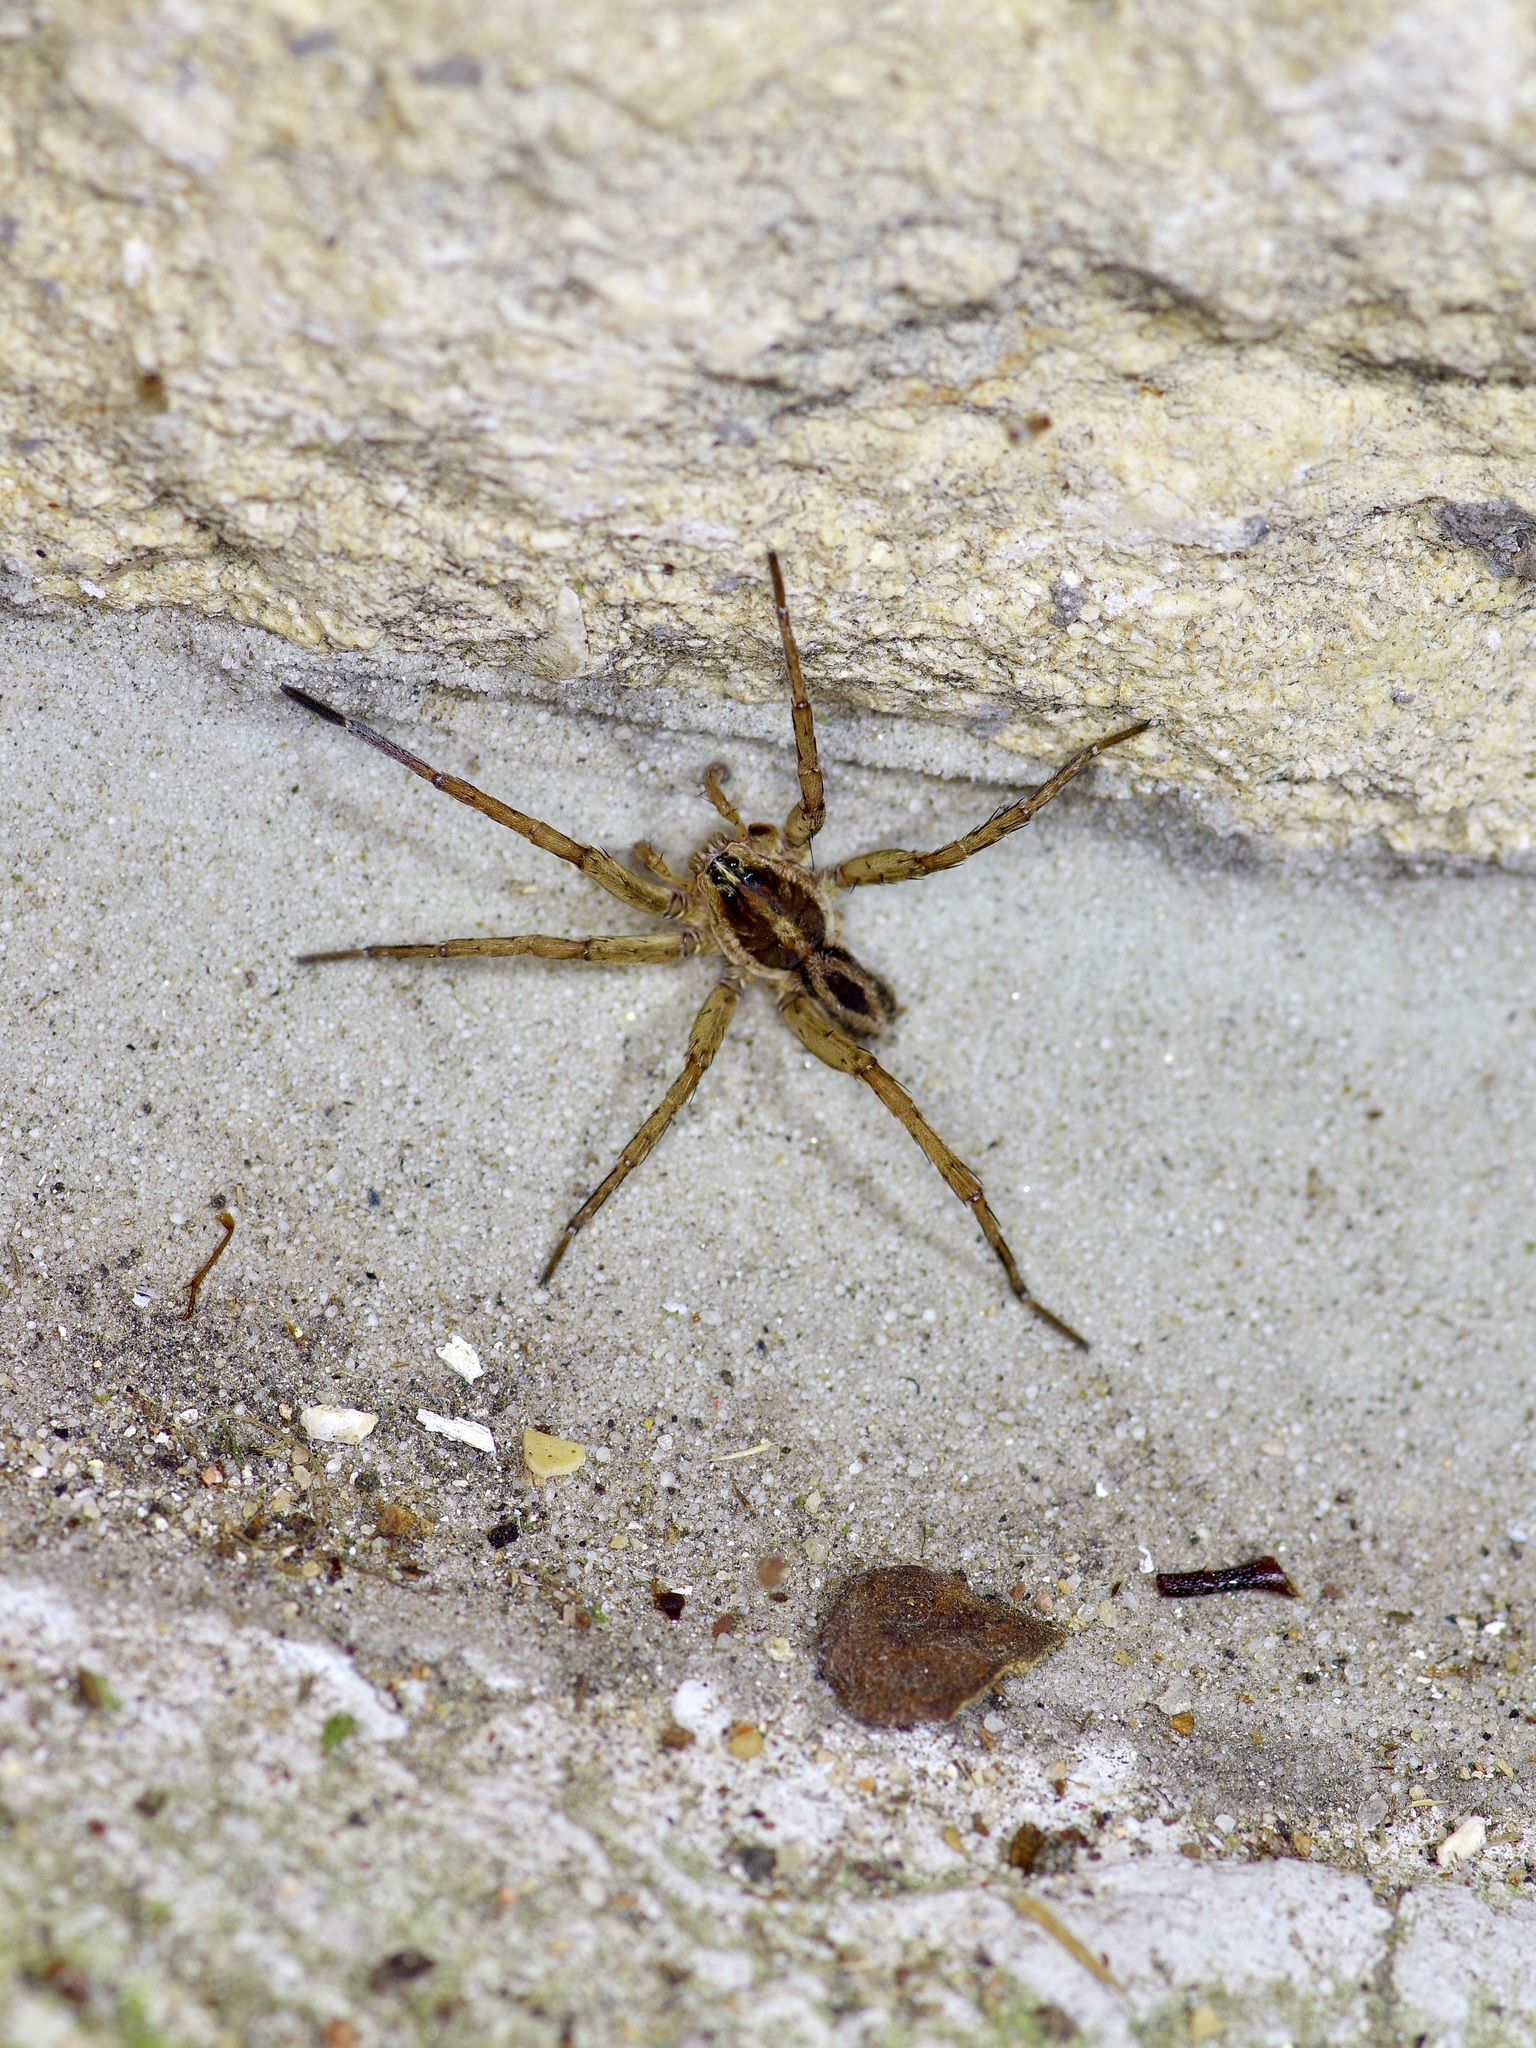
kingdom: Animalia
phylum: Arthropoda
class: Arachnida
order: Araneae
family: Lycosidae
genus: Tigrosa
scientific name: Tigrosa annexa
